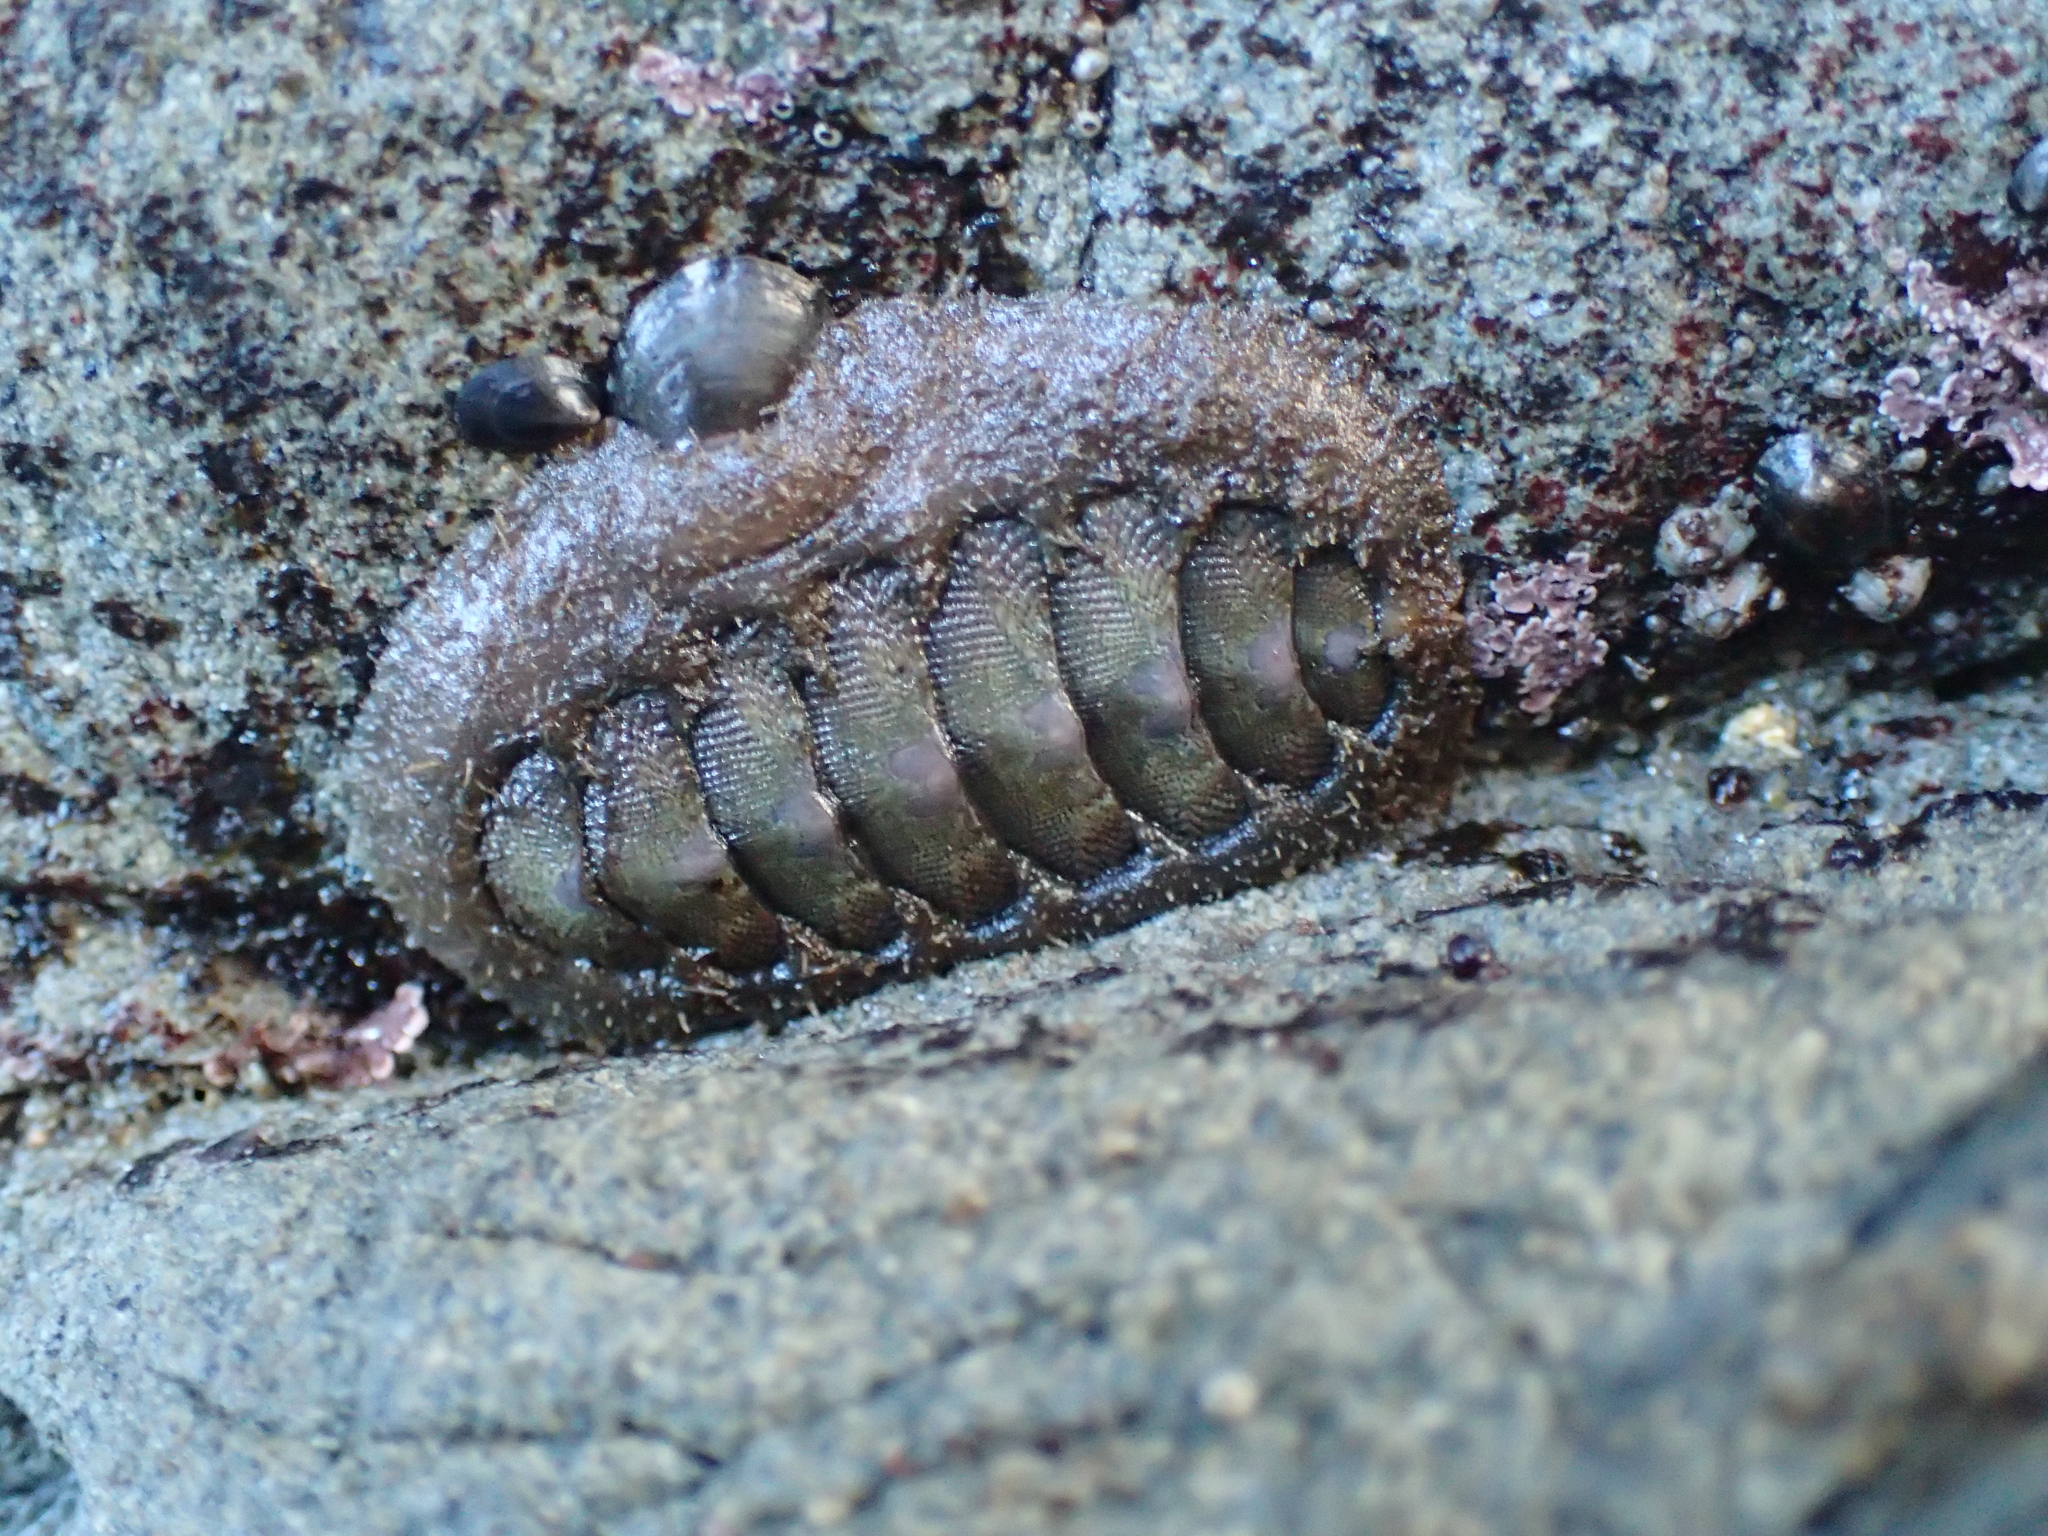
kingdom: Animalia
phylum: Mollusca
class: Polyplacophora
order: Chitonida
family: Mopaliidae
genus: Mopalia
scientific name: Mopalia hindsii
